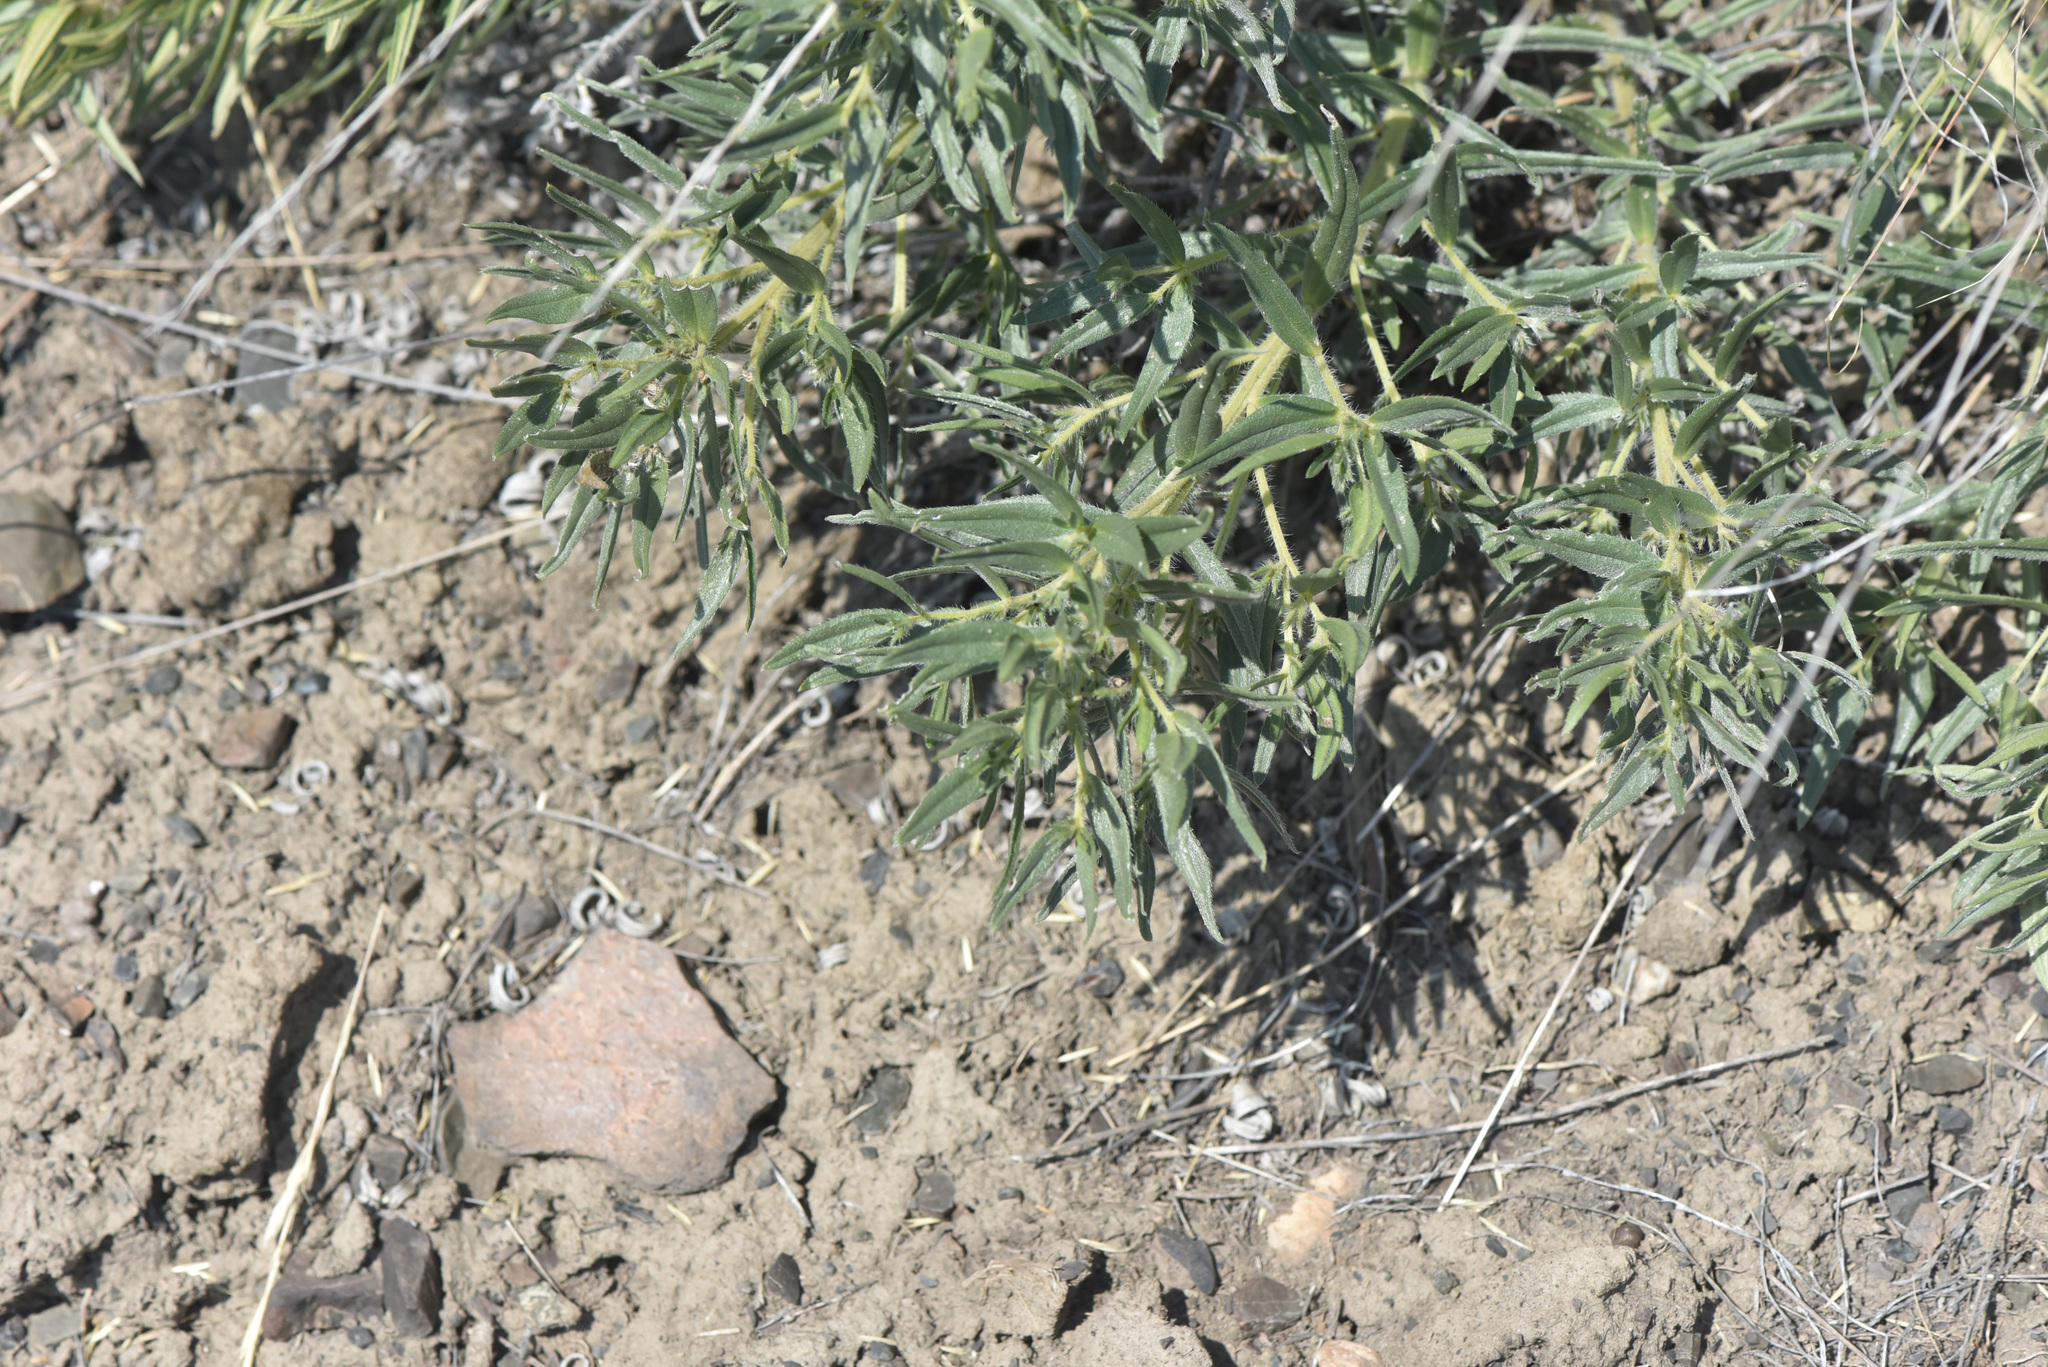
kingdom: Plantae
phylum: Tracheophyta
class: Magnoliopsida
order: Boraginales
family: Boraginaceae
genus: Lithospermum
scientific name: Lithospermum ruderale
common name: Western gromwell
